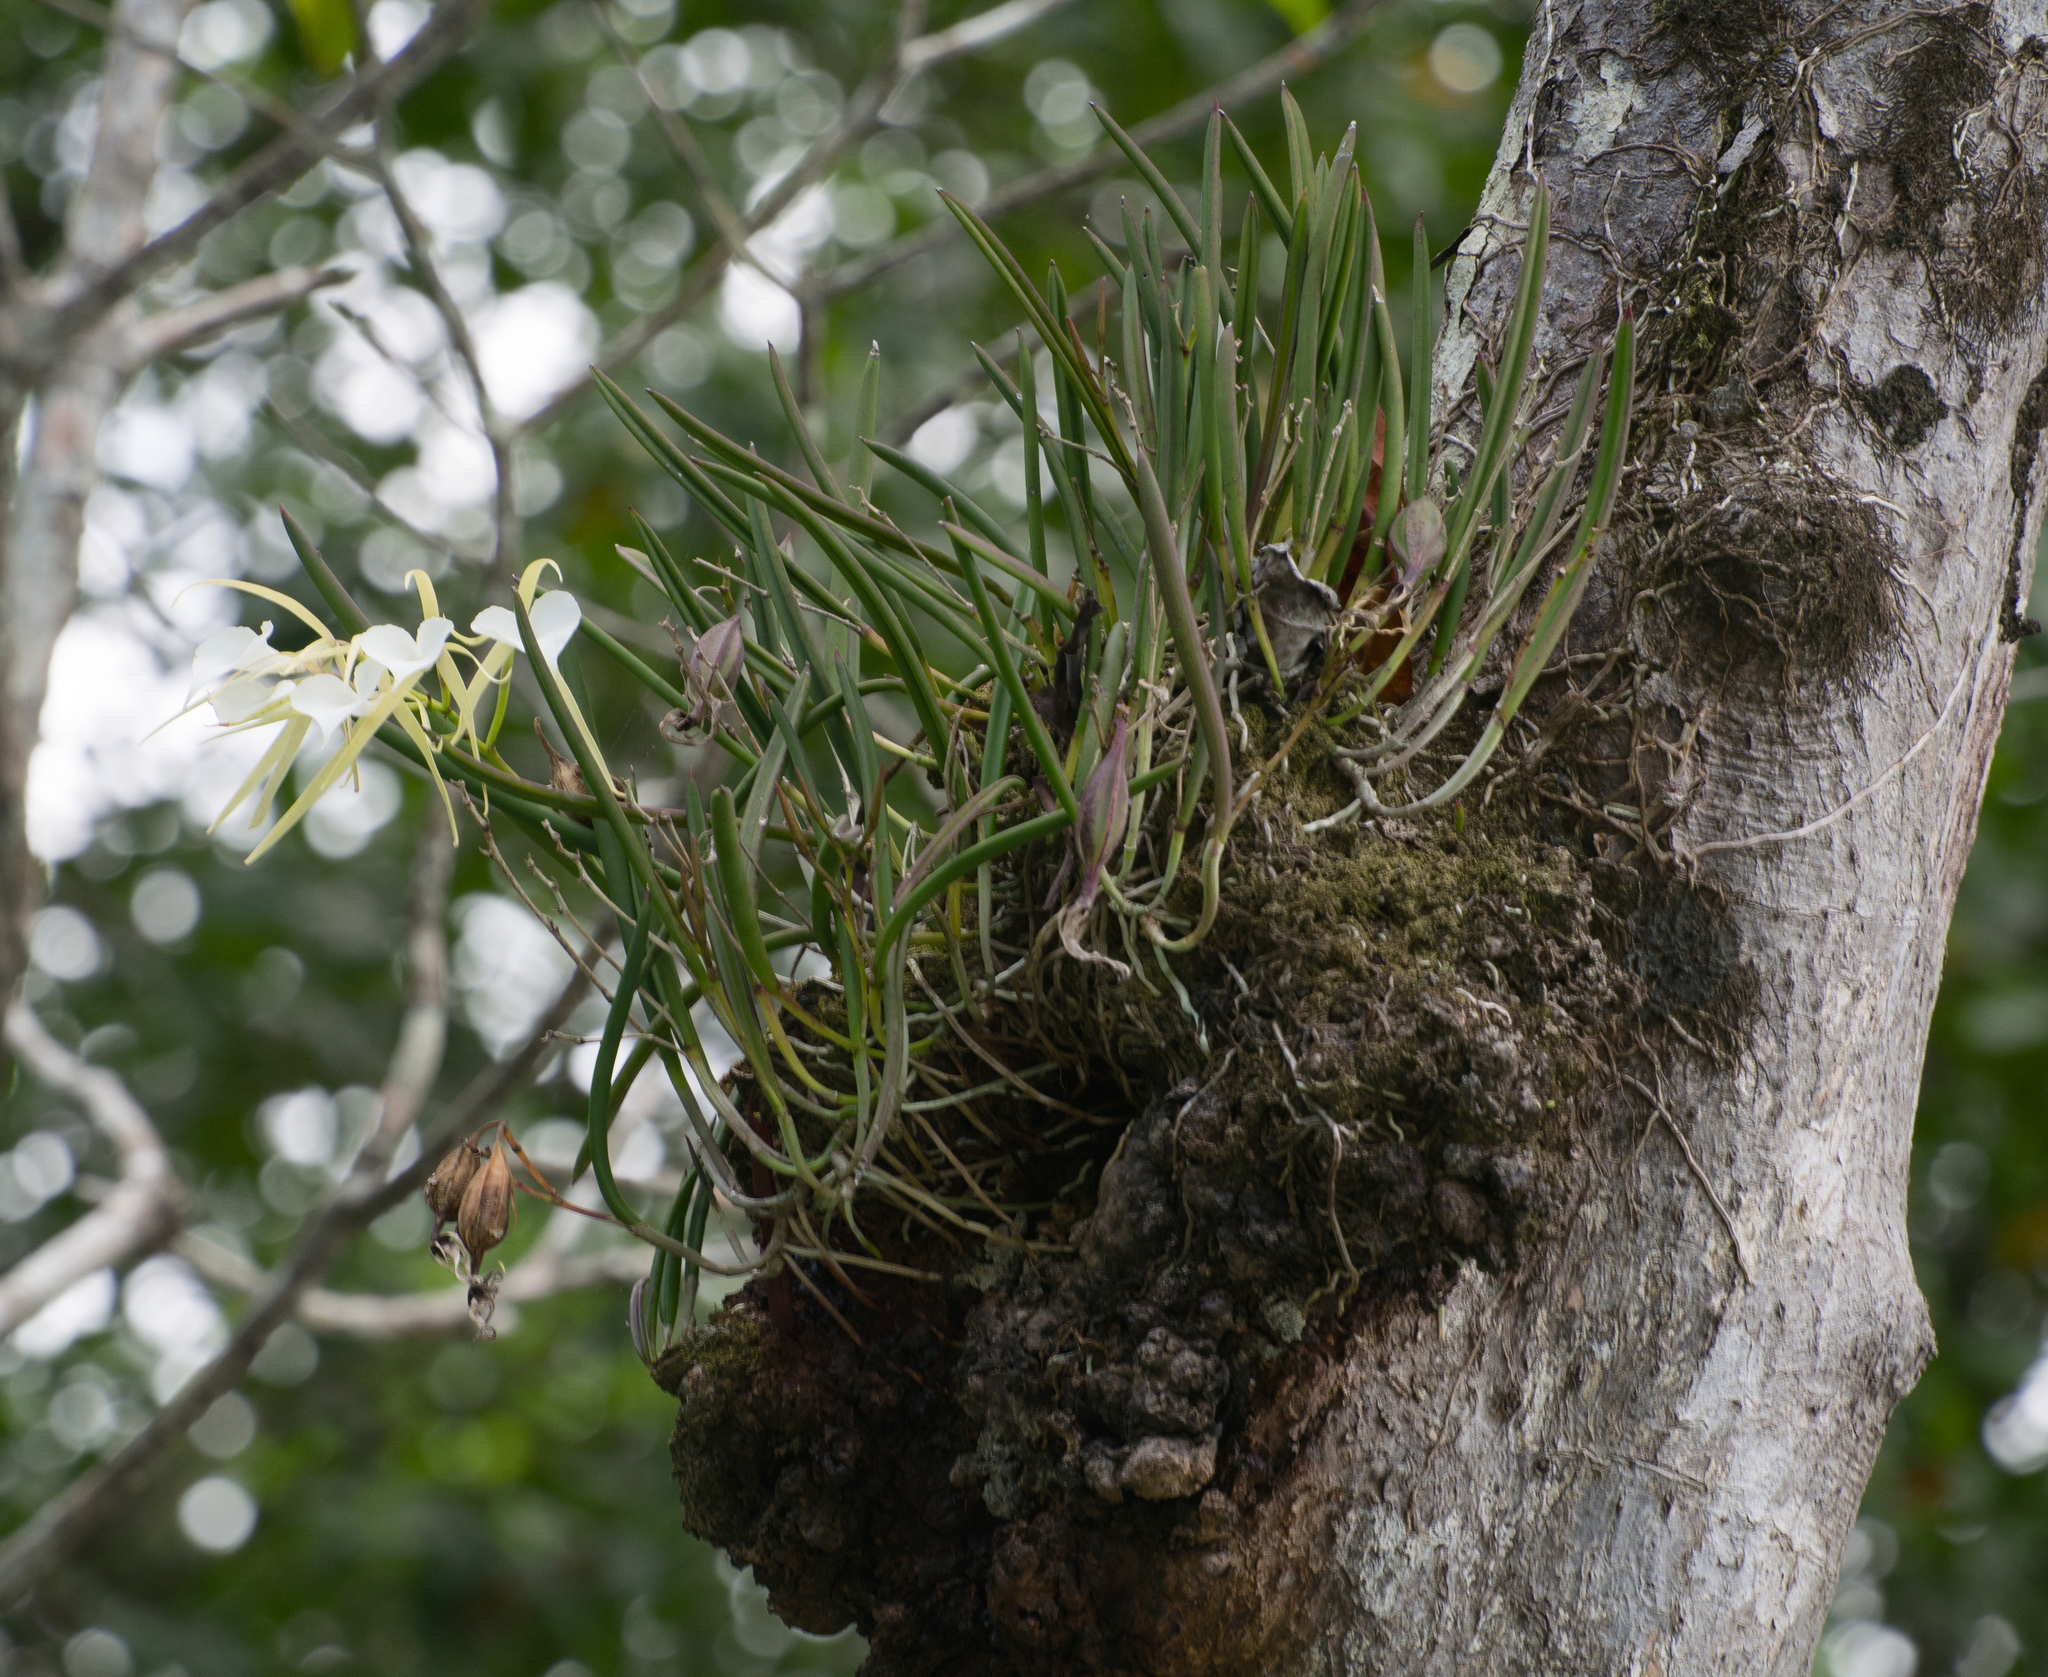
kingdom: Plantae
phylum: Tracheophyta
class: Liliopsida
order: Asparagales
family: Orchidaceae
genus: Brassavola
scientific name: Brassavola nodosa
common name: Lady of the night
